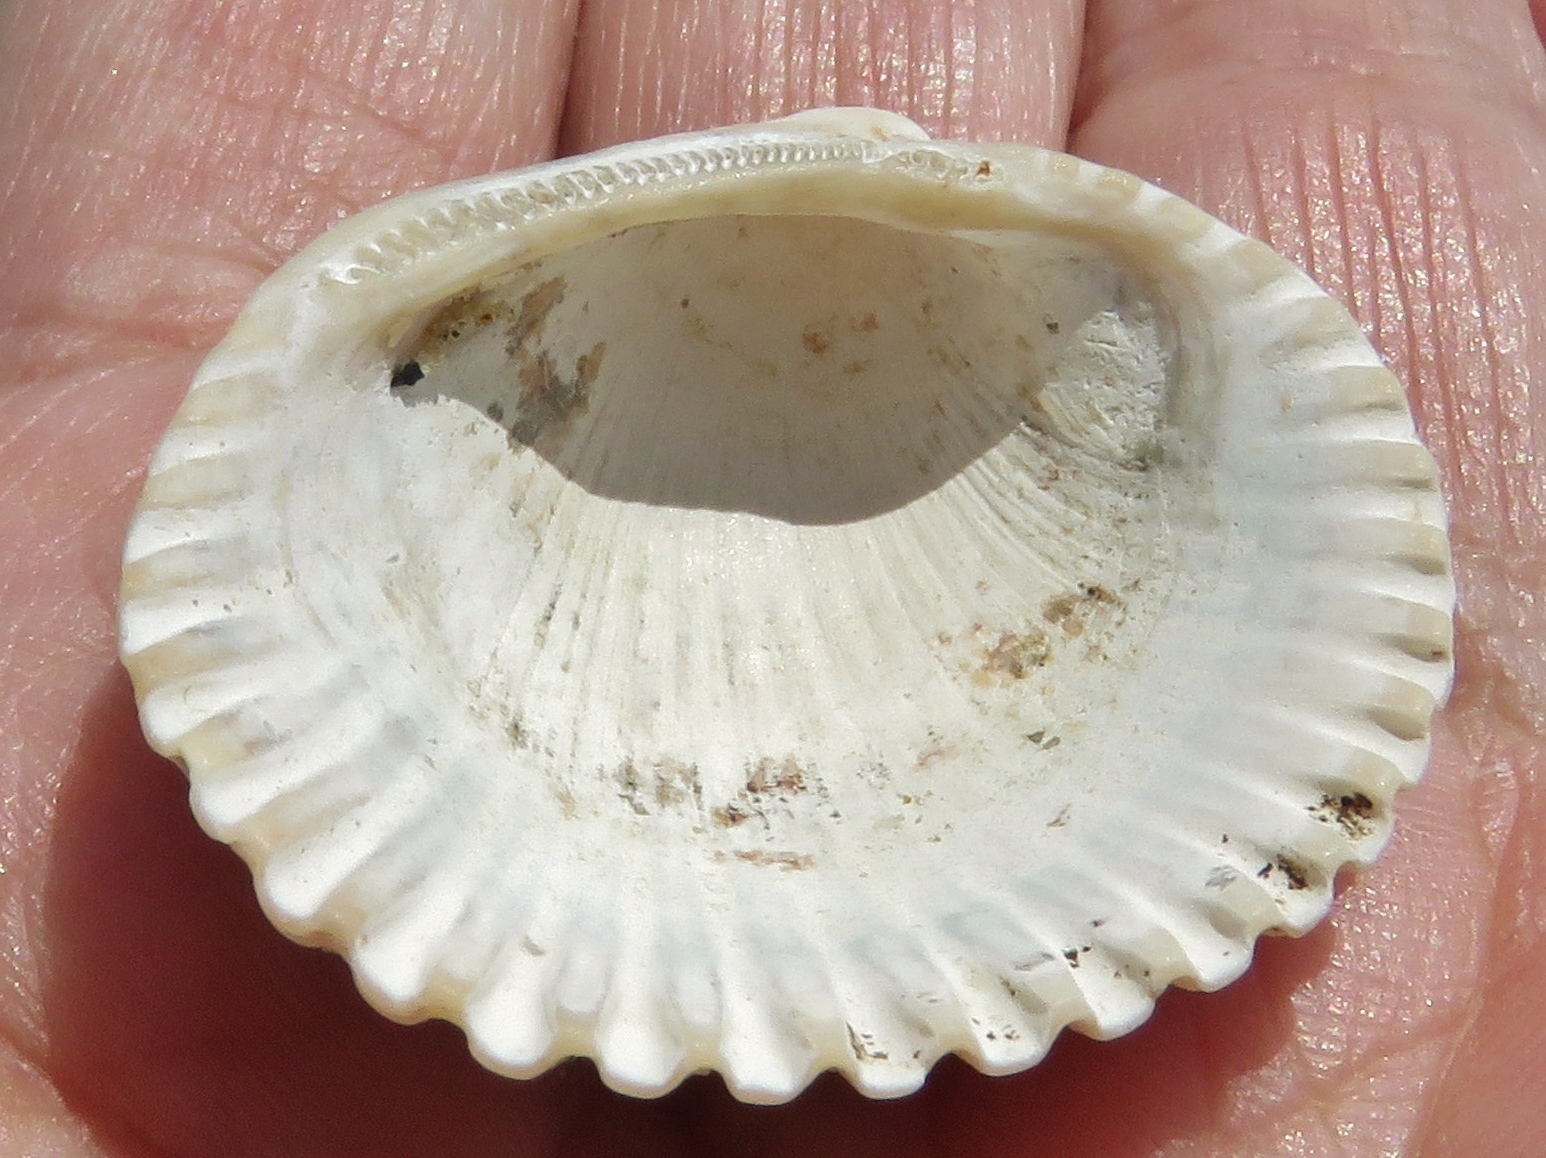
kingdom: Animalia
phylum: Mollusca
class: Bivalvia
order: Arcida
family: Arcidae
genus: Lunarca
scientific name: Lunarca ovalis
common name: Blood ark
